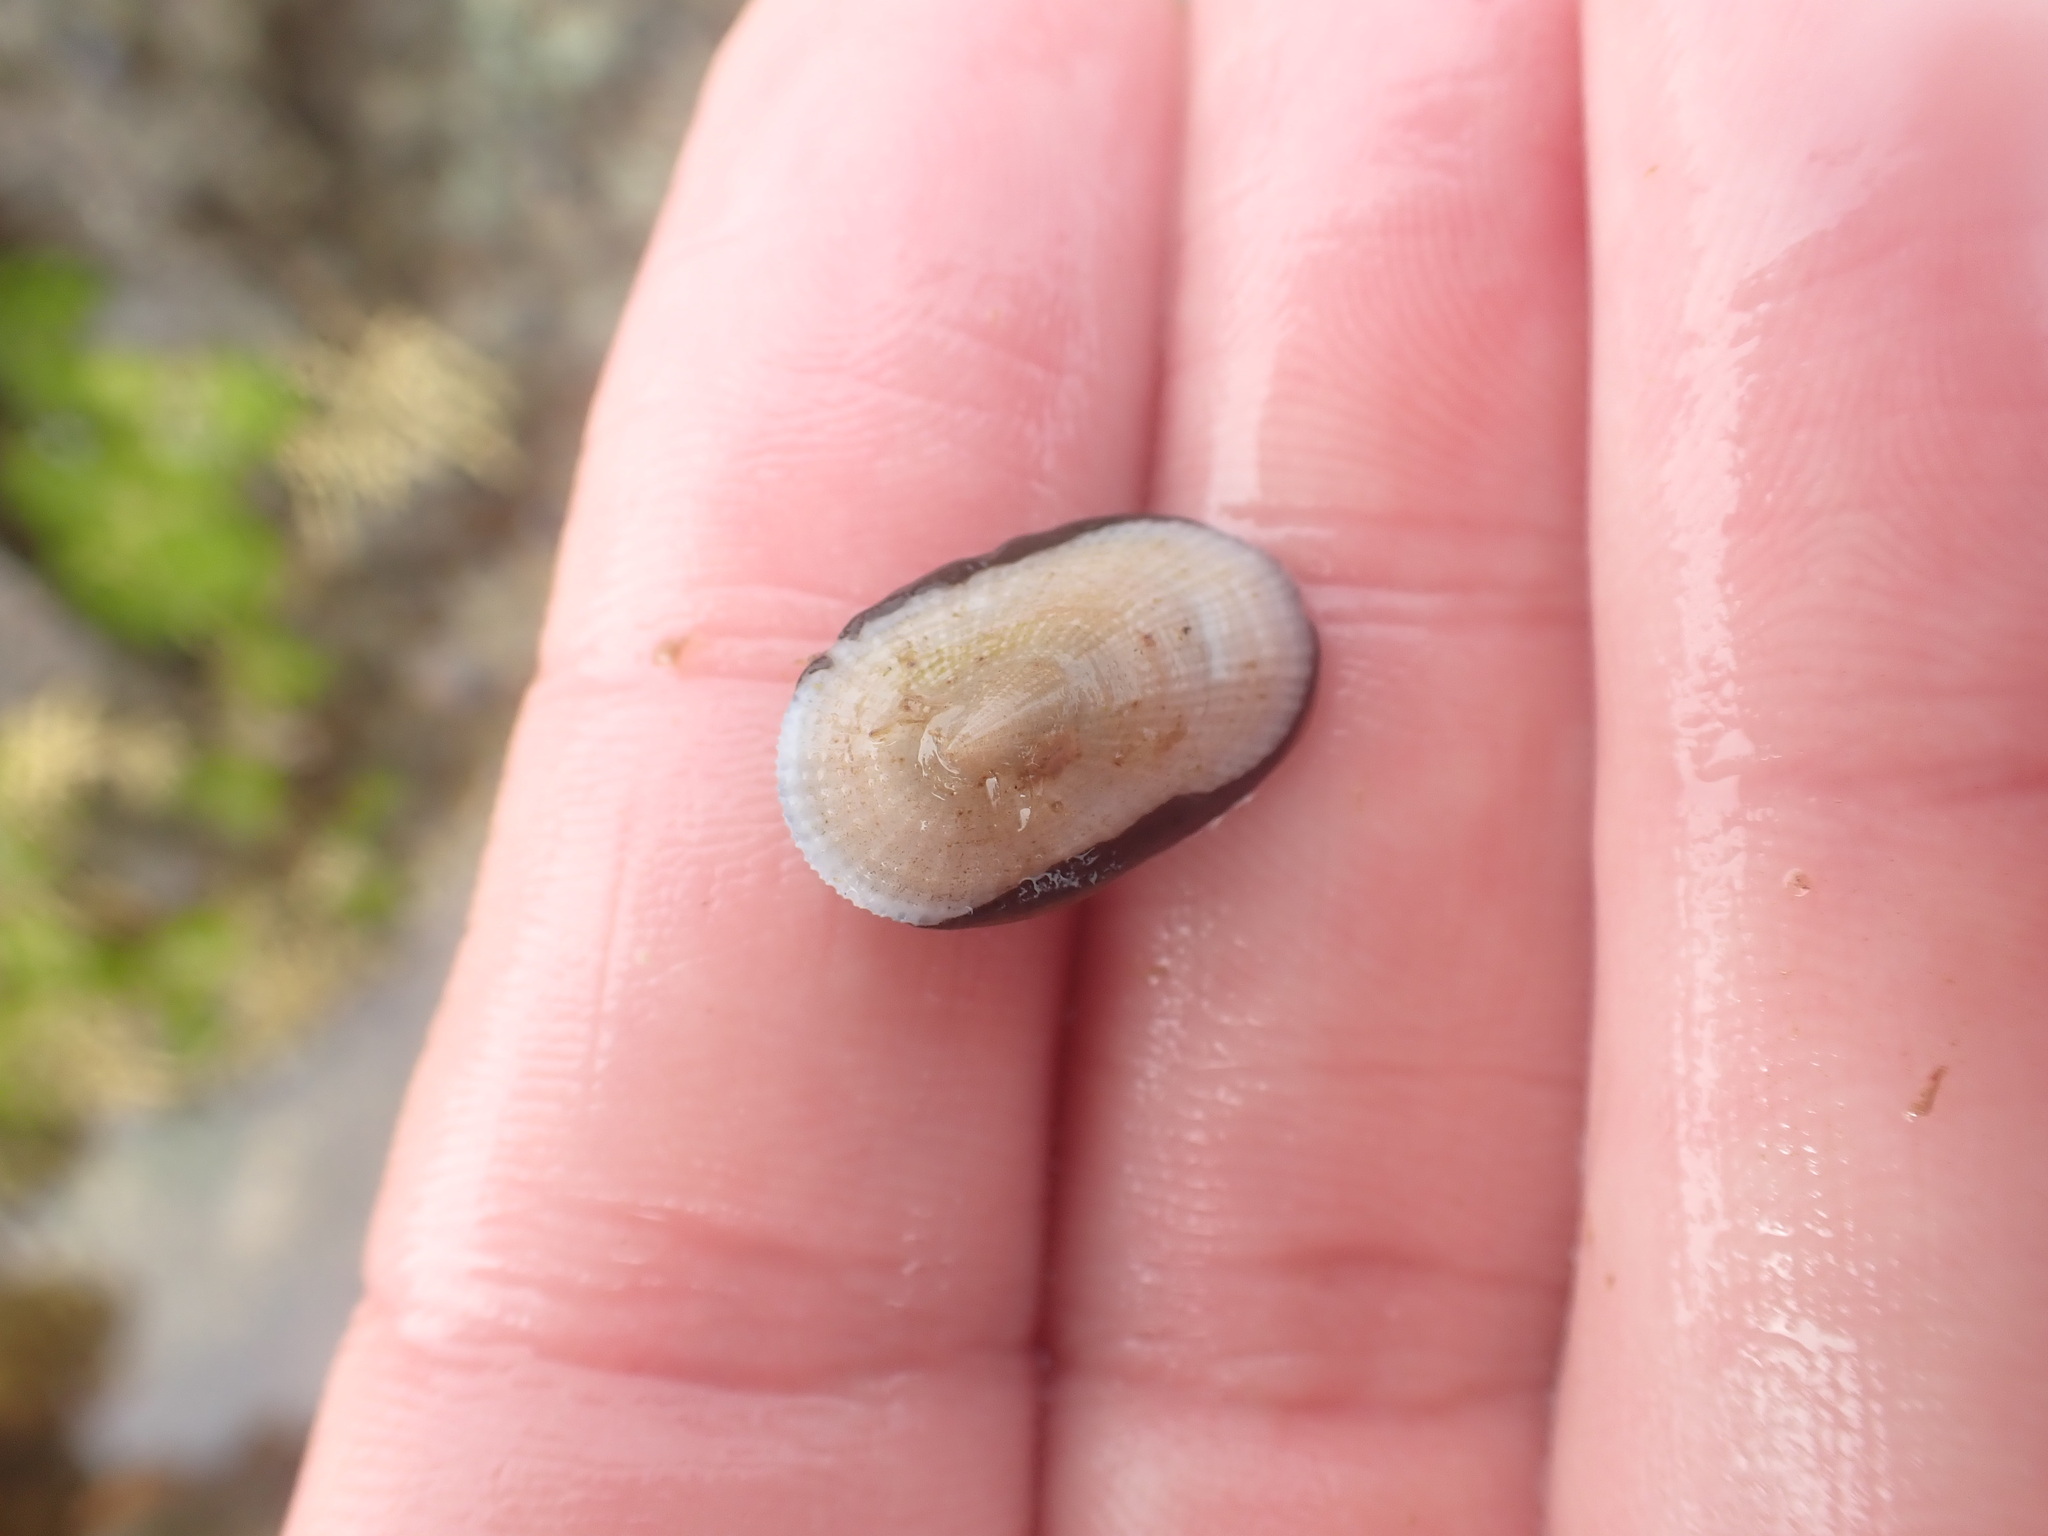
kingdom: Animalia
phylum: Mollusca
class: Gastropoda
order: Lepetellida
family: Fissurellidae
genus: Tugali
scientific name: Tugali elegans
